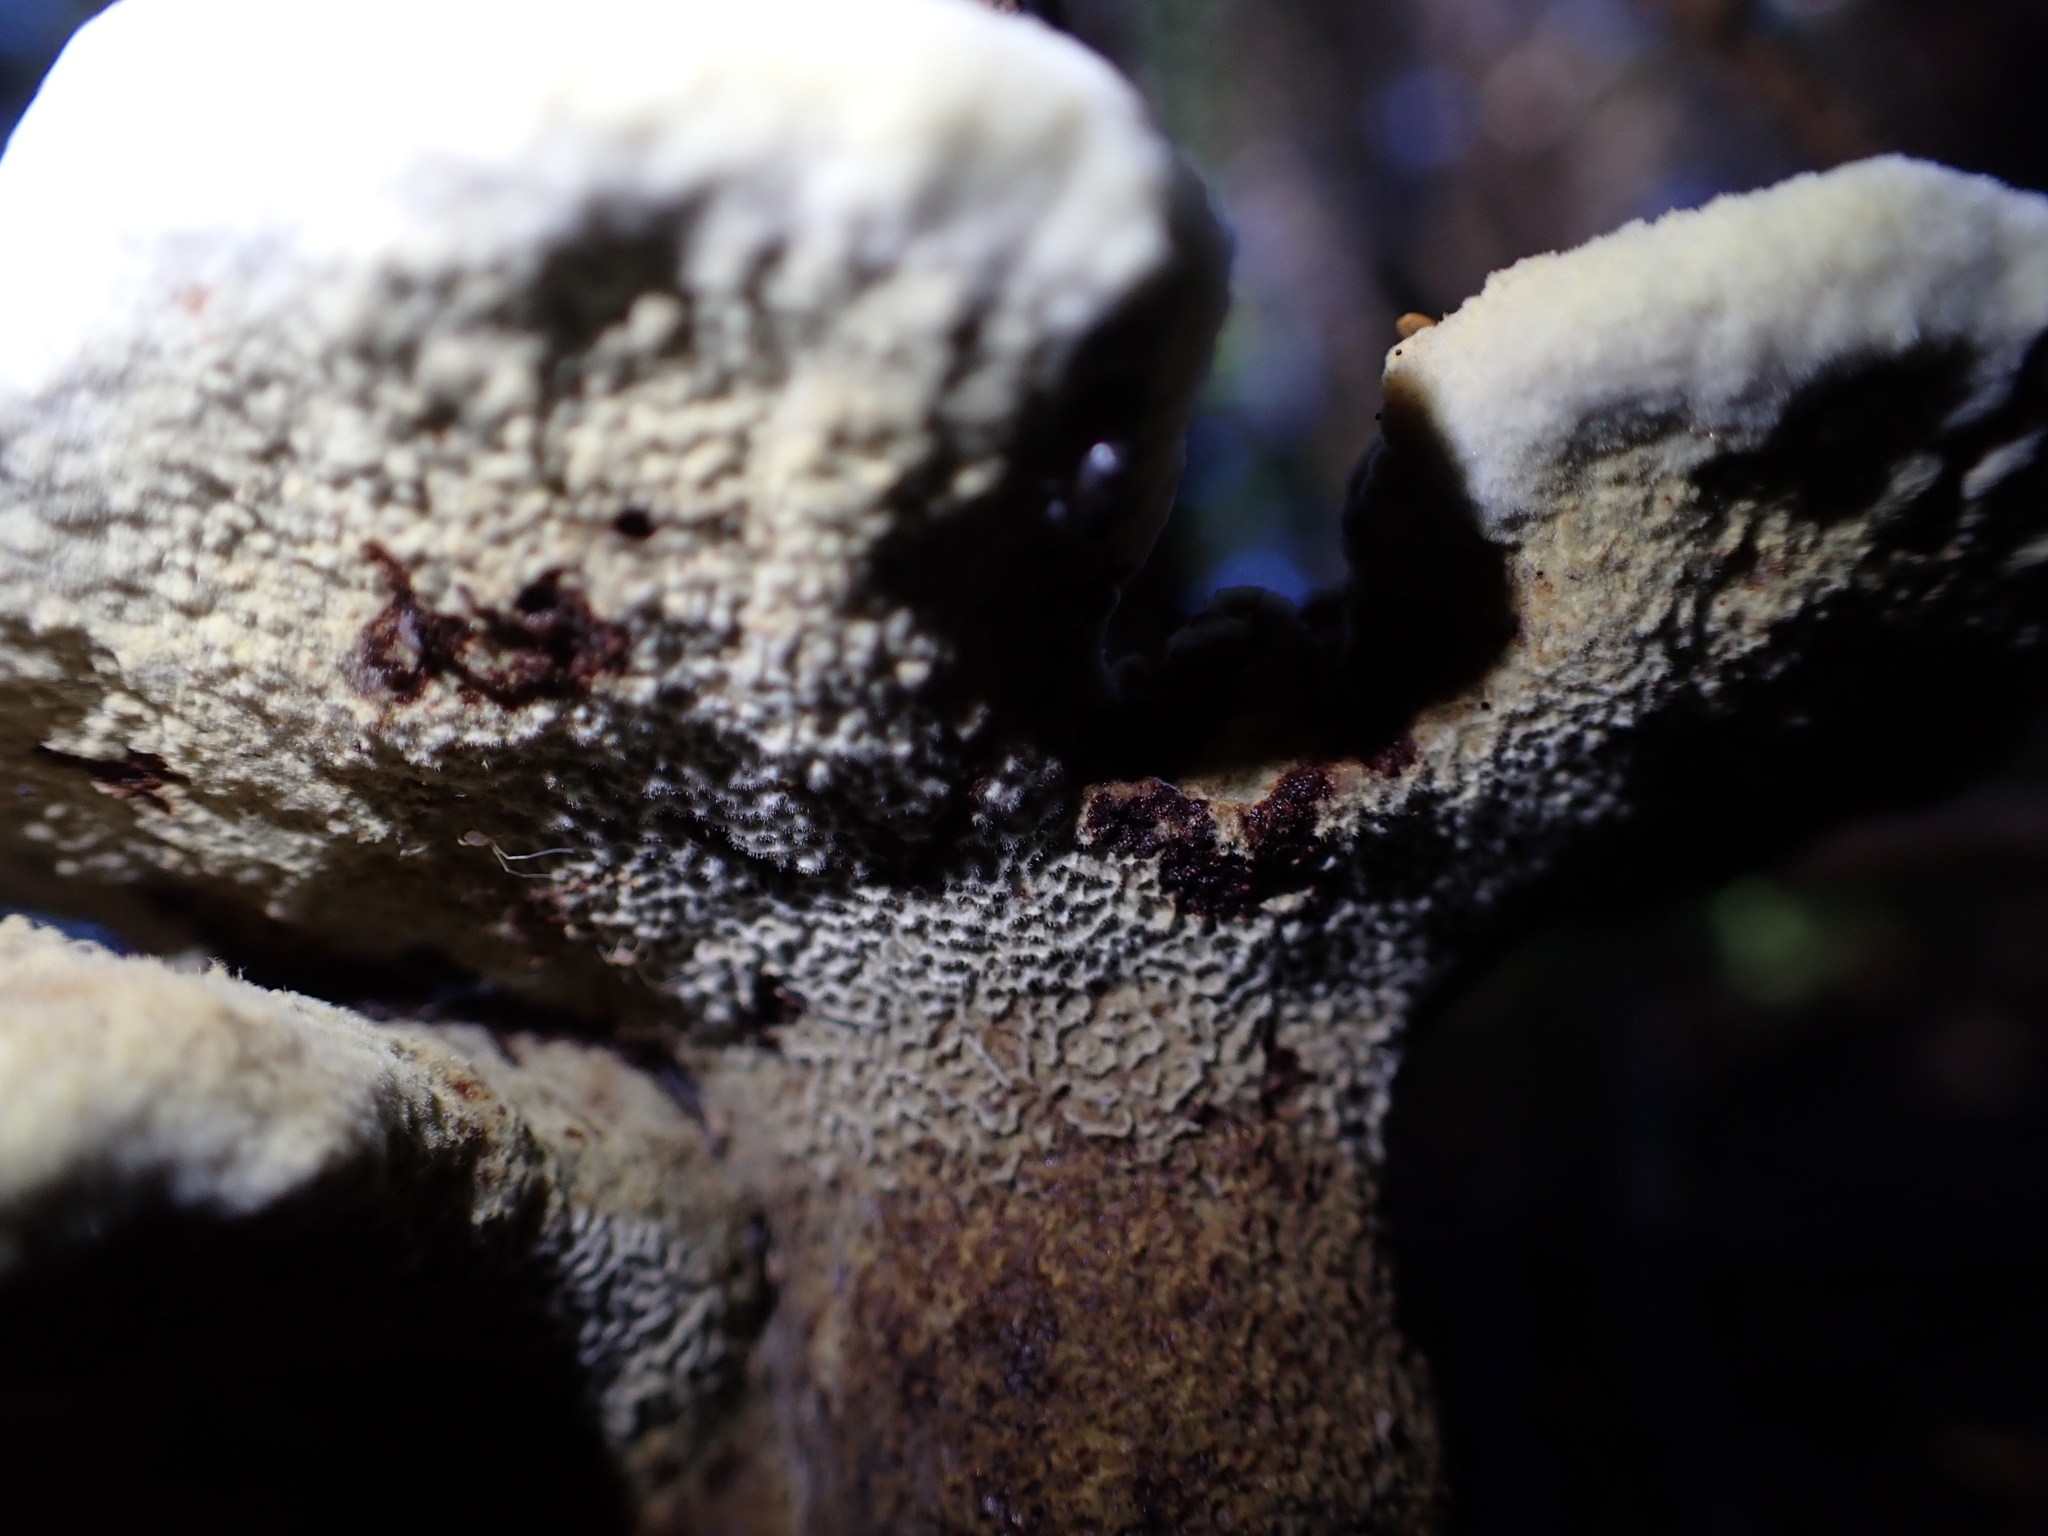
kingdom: Fungi
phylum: Basidiomycota
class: Agaricomycetes
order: Polyporales
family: Laetiporaceae
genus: Phaeolus
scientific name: Phaeolus schweinitzii
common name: Dyer's mazegill
